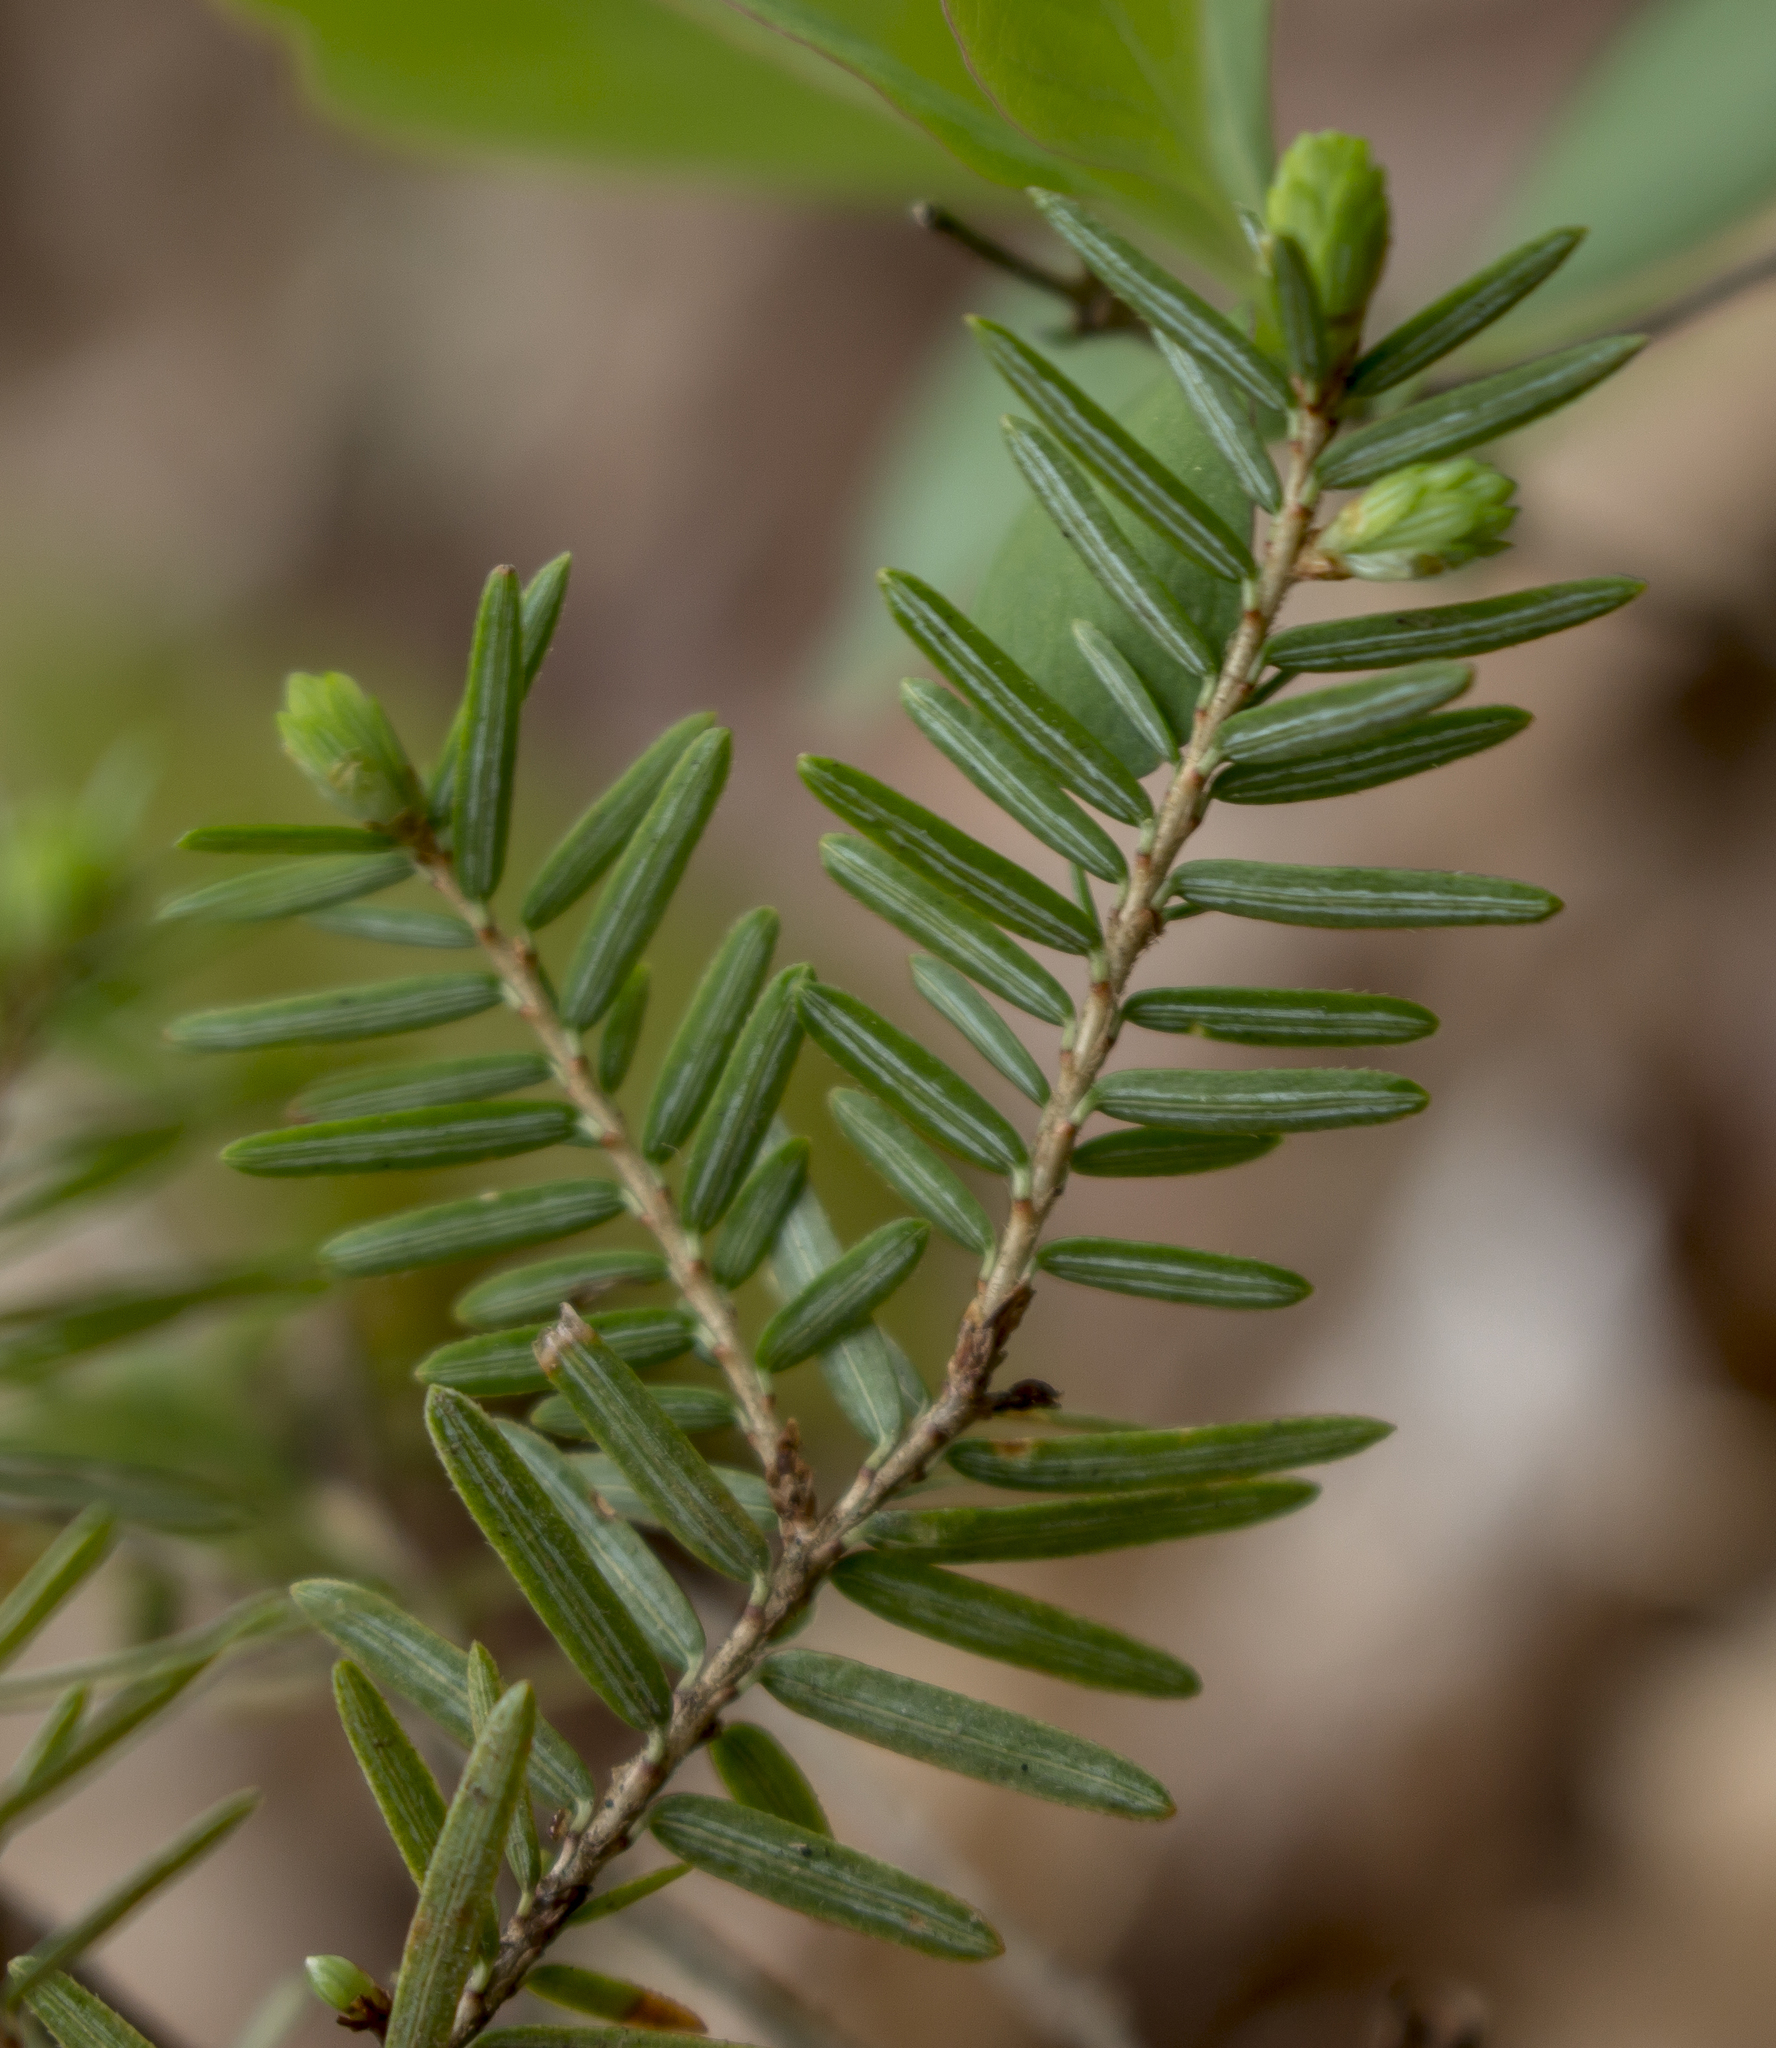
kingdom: Plantae
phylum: Tracheophyta
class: Pinopsida
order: Pinales
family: Pinaceae
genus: Tsuga
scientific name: Tsuga canadensis
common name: Eastern hemlock
